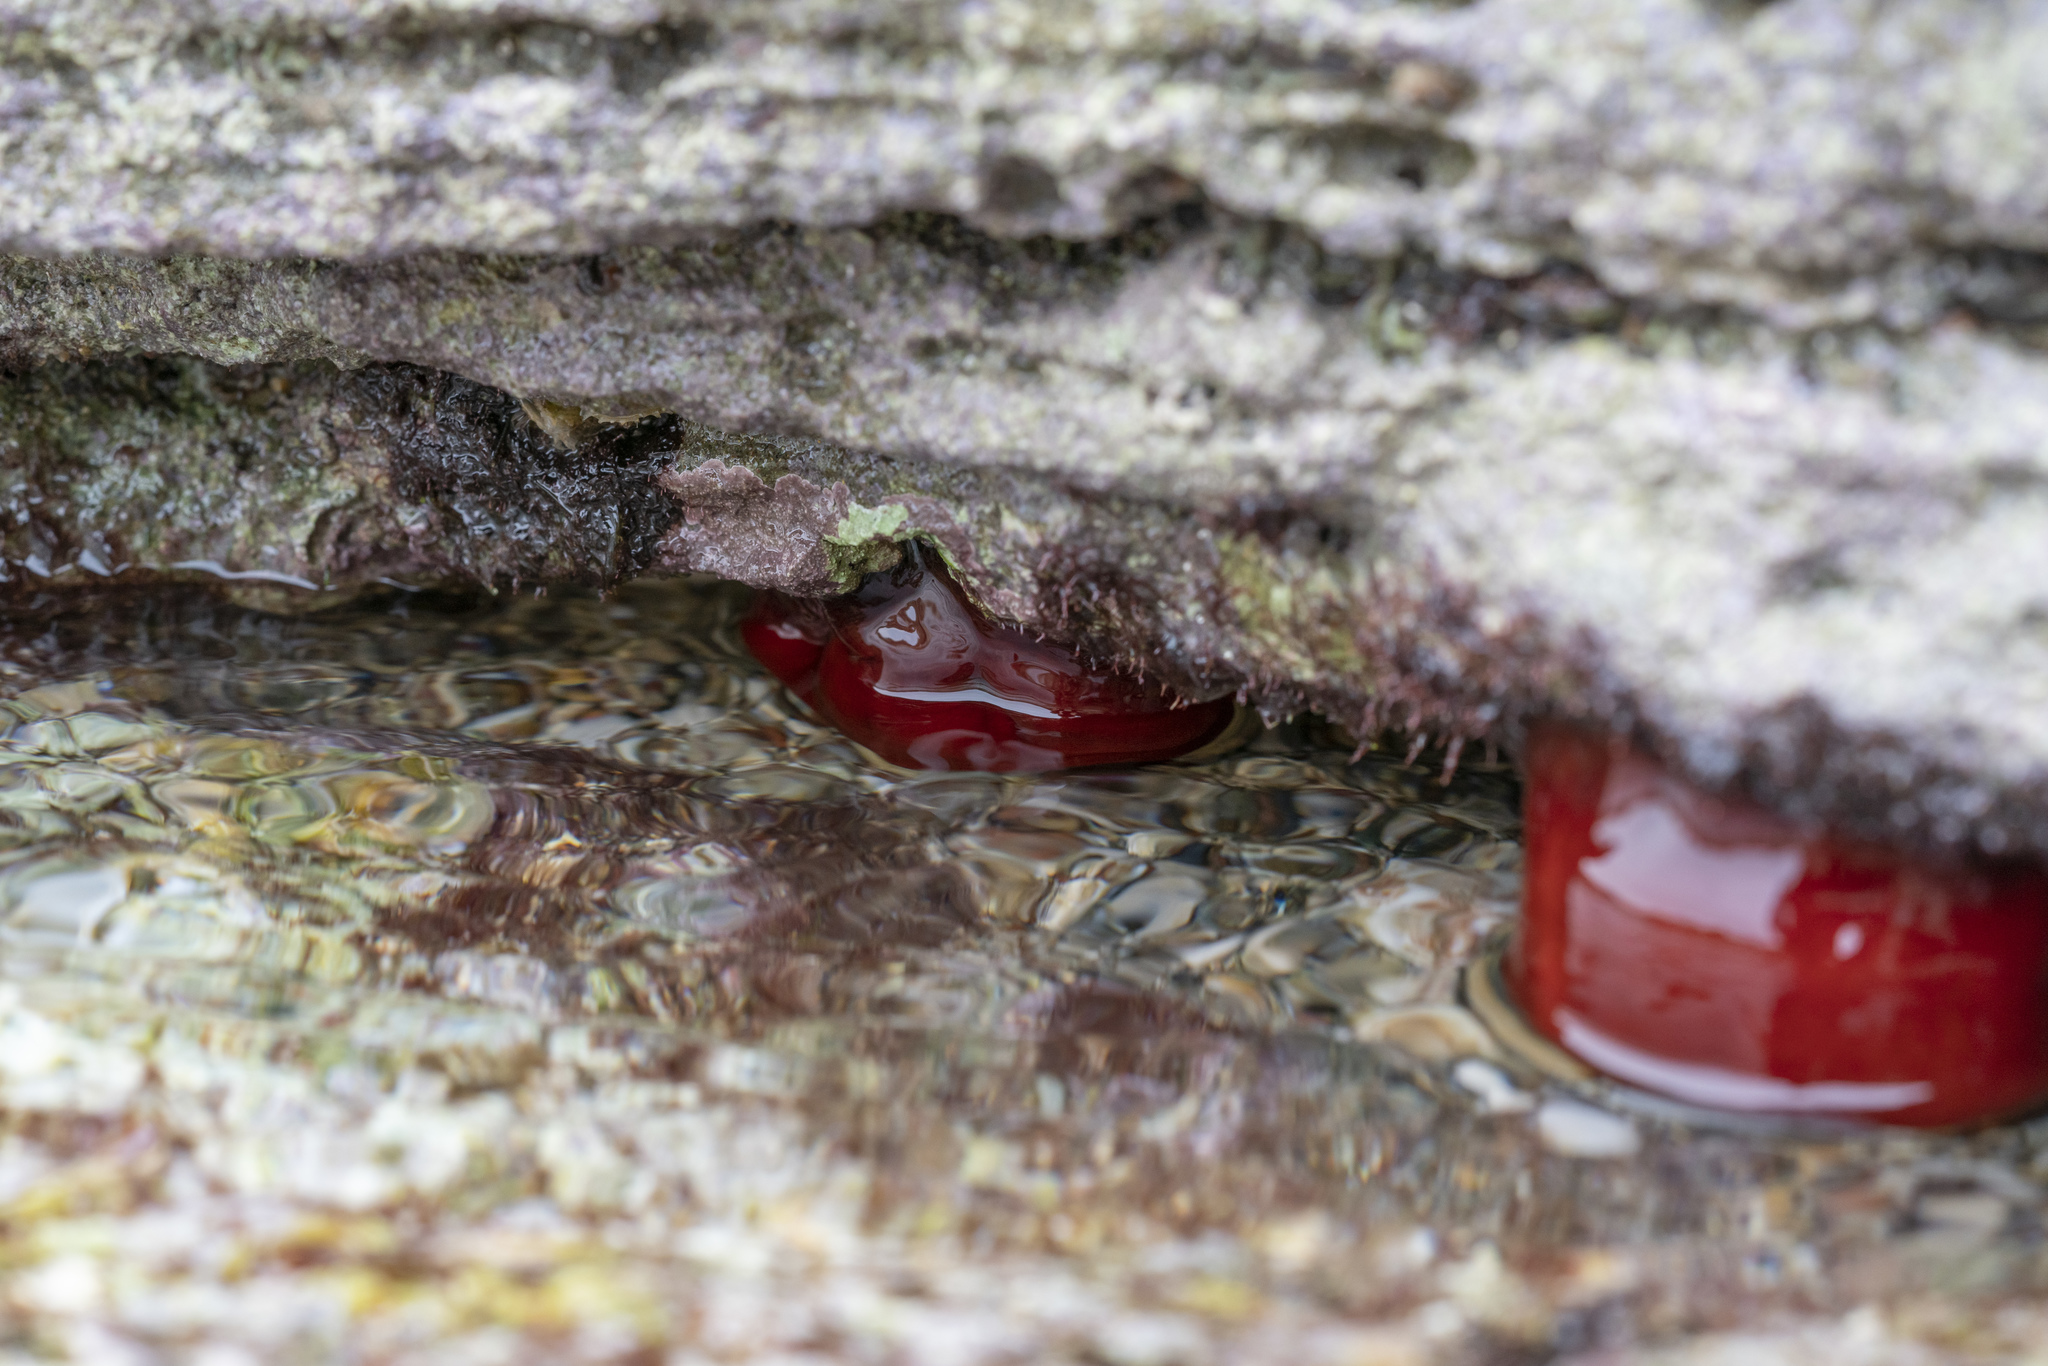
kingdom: Animalia
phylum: Cnidaria
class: Anthozoa
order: Actiniaria
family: Actiniidae
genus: Actinia
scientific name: Actinia mediterranea
